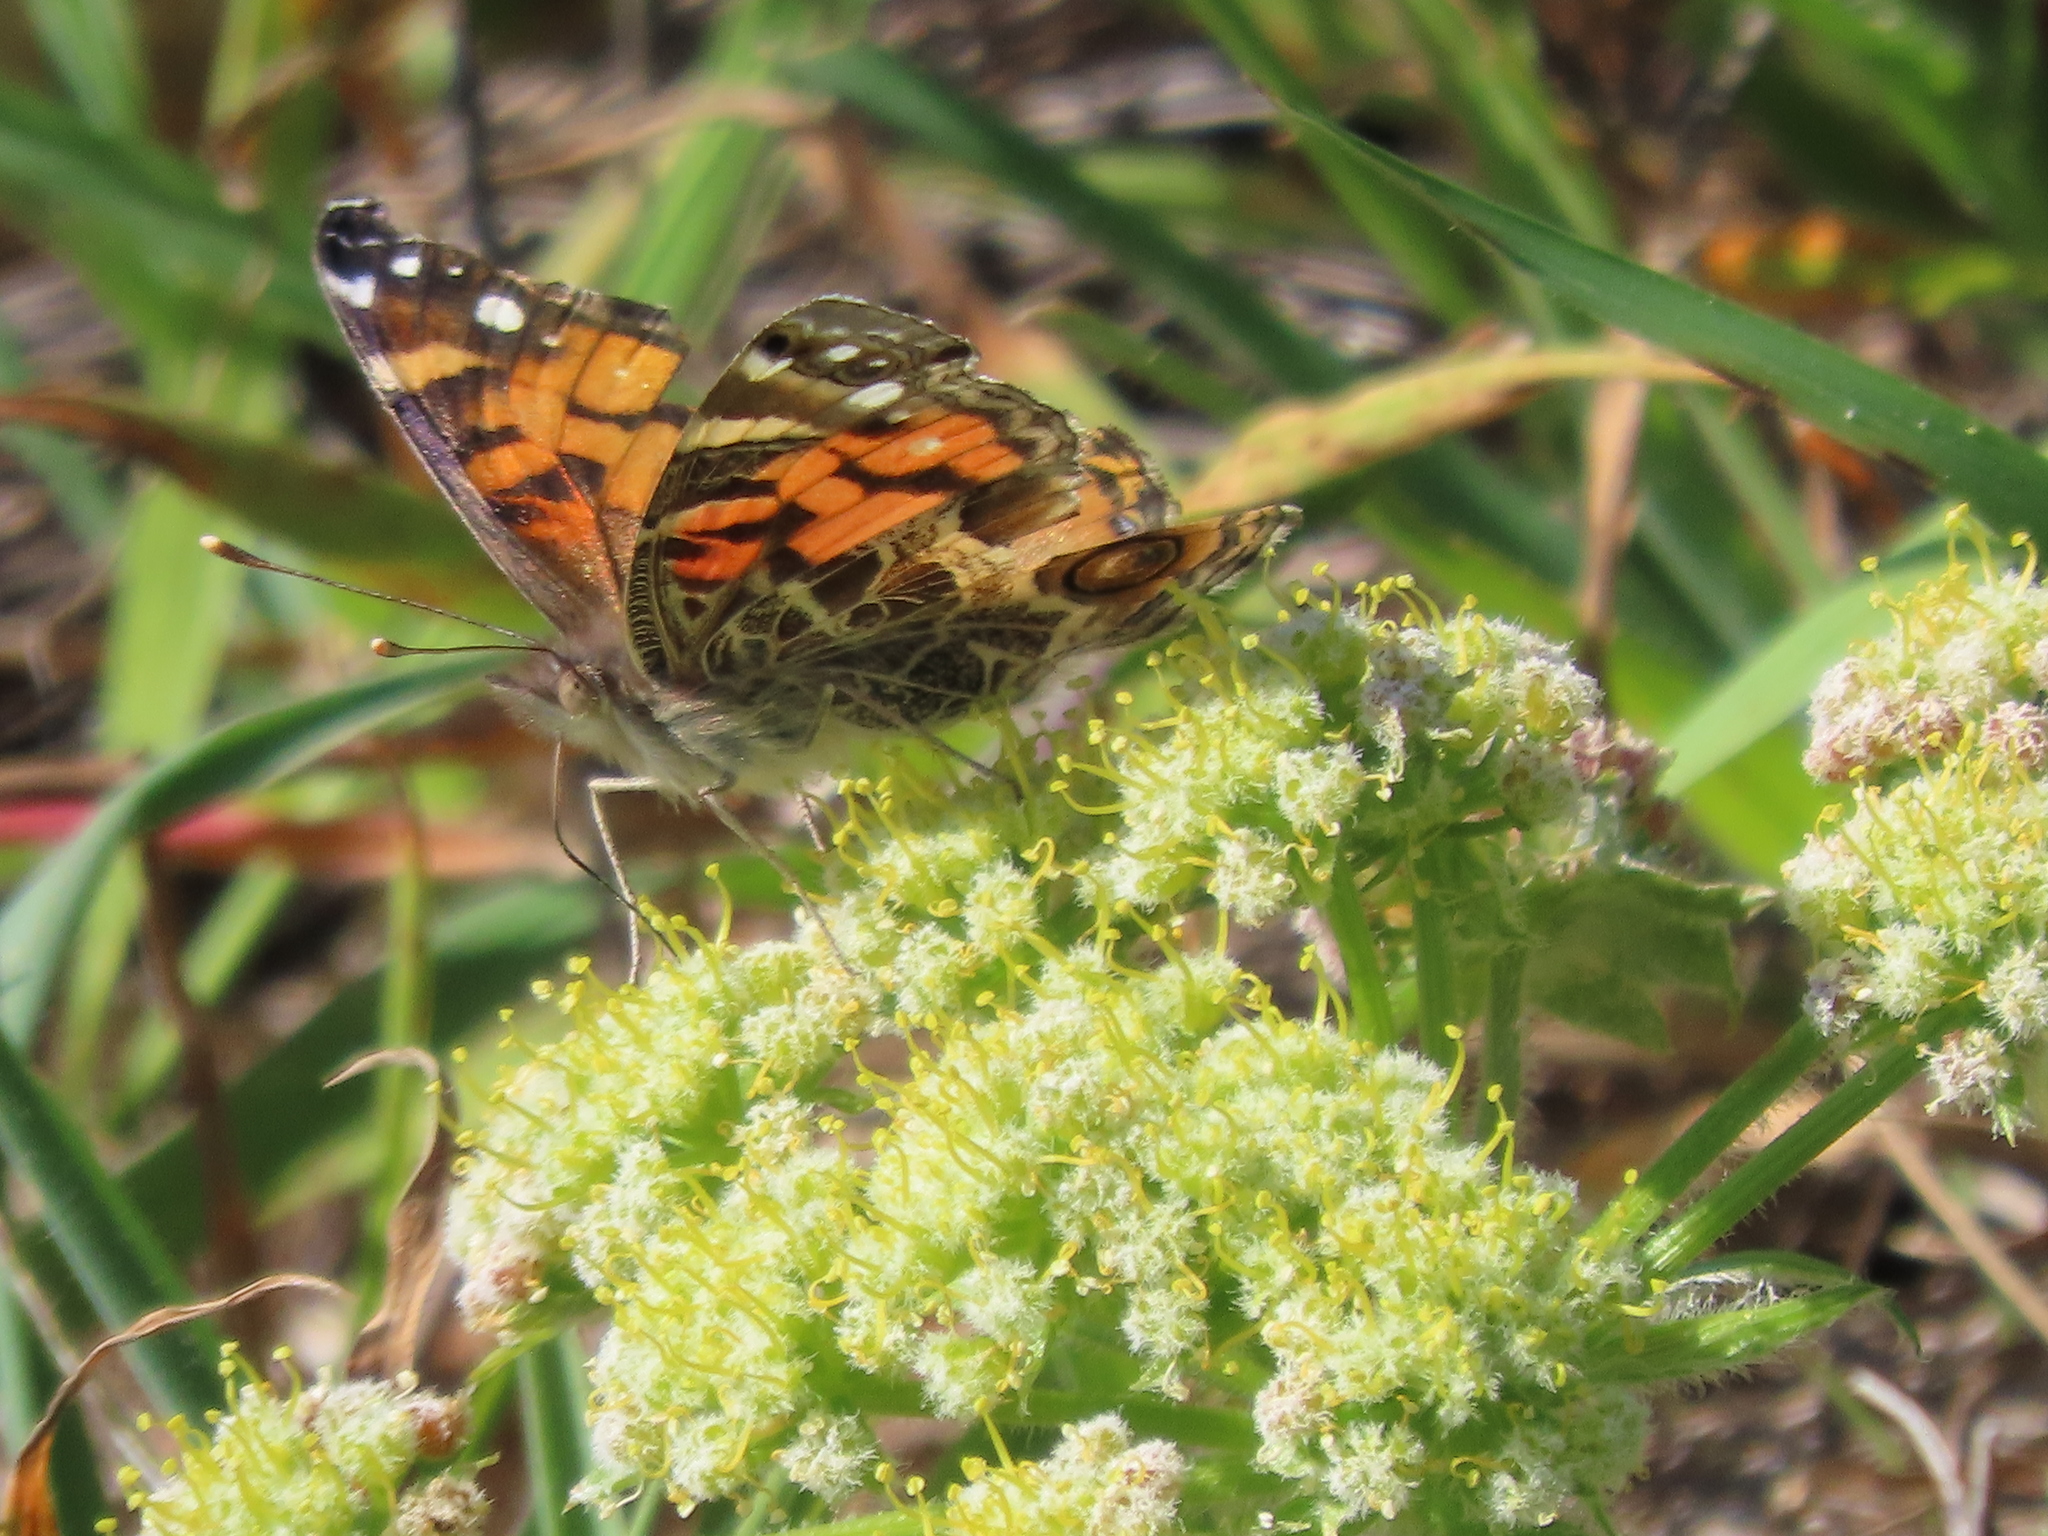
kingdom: Animalia
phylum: Arthropoda
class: Insecta
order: Lepidoptera
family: Nymphalidae
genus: Vanessa
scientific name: Vanessa virginiensis
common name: American lady
